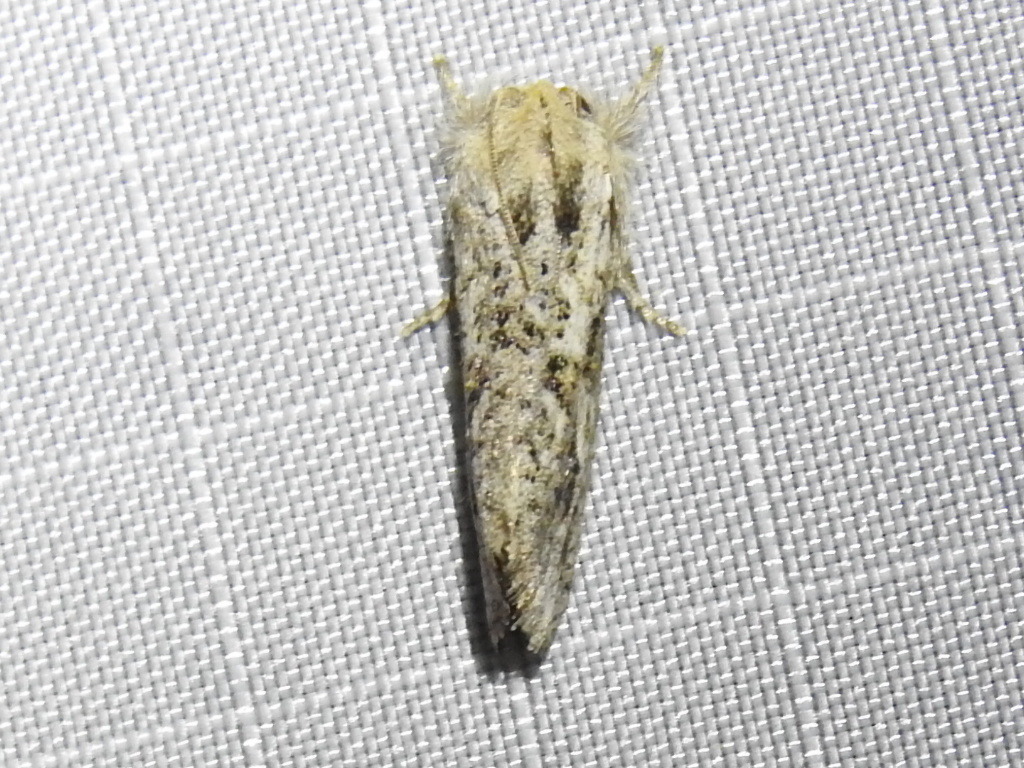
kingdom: Animalia
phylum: Arthropoda
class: Insecta
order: Lepidoptera
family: Tineidae
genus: Acrolophus
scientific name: Acrolophus griseus
